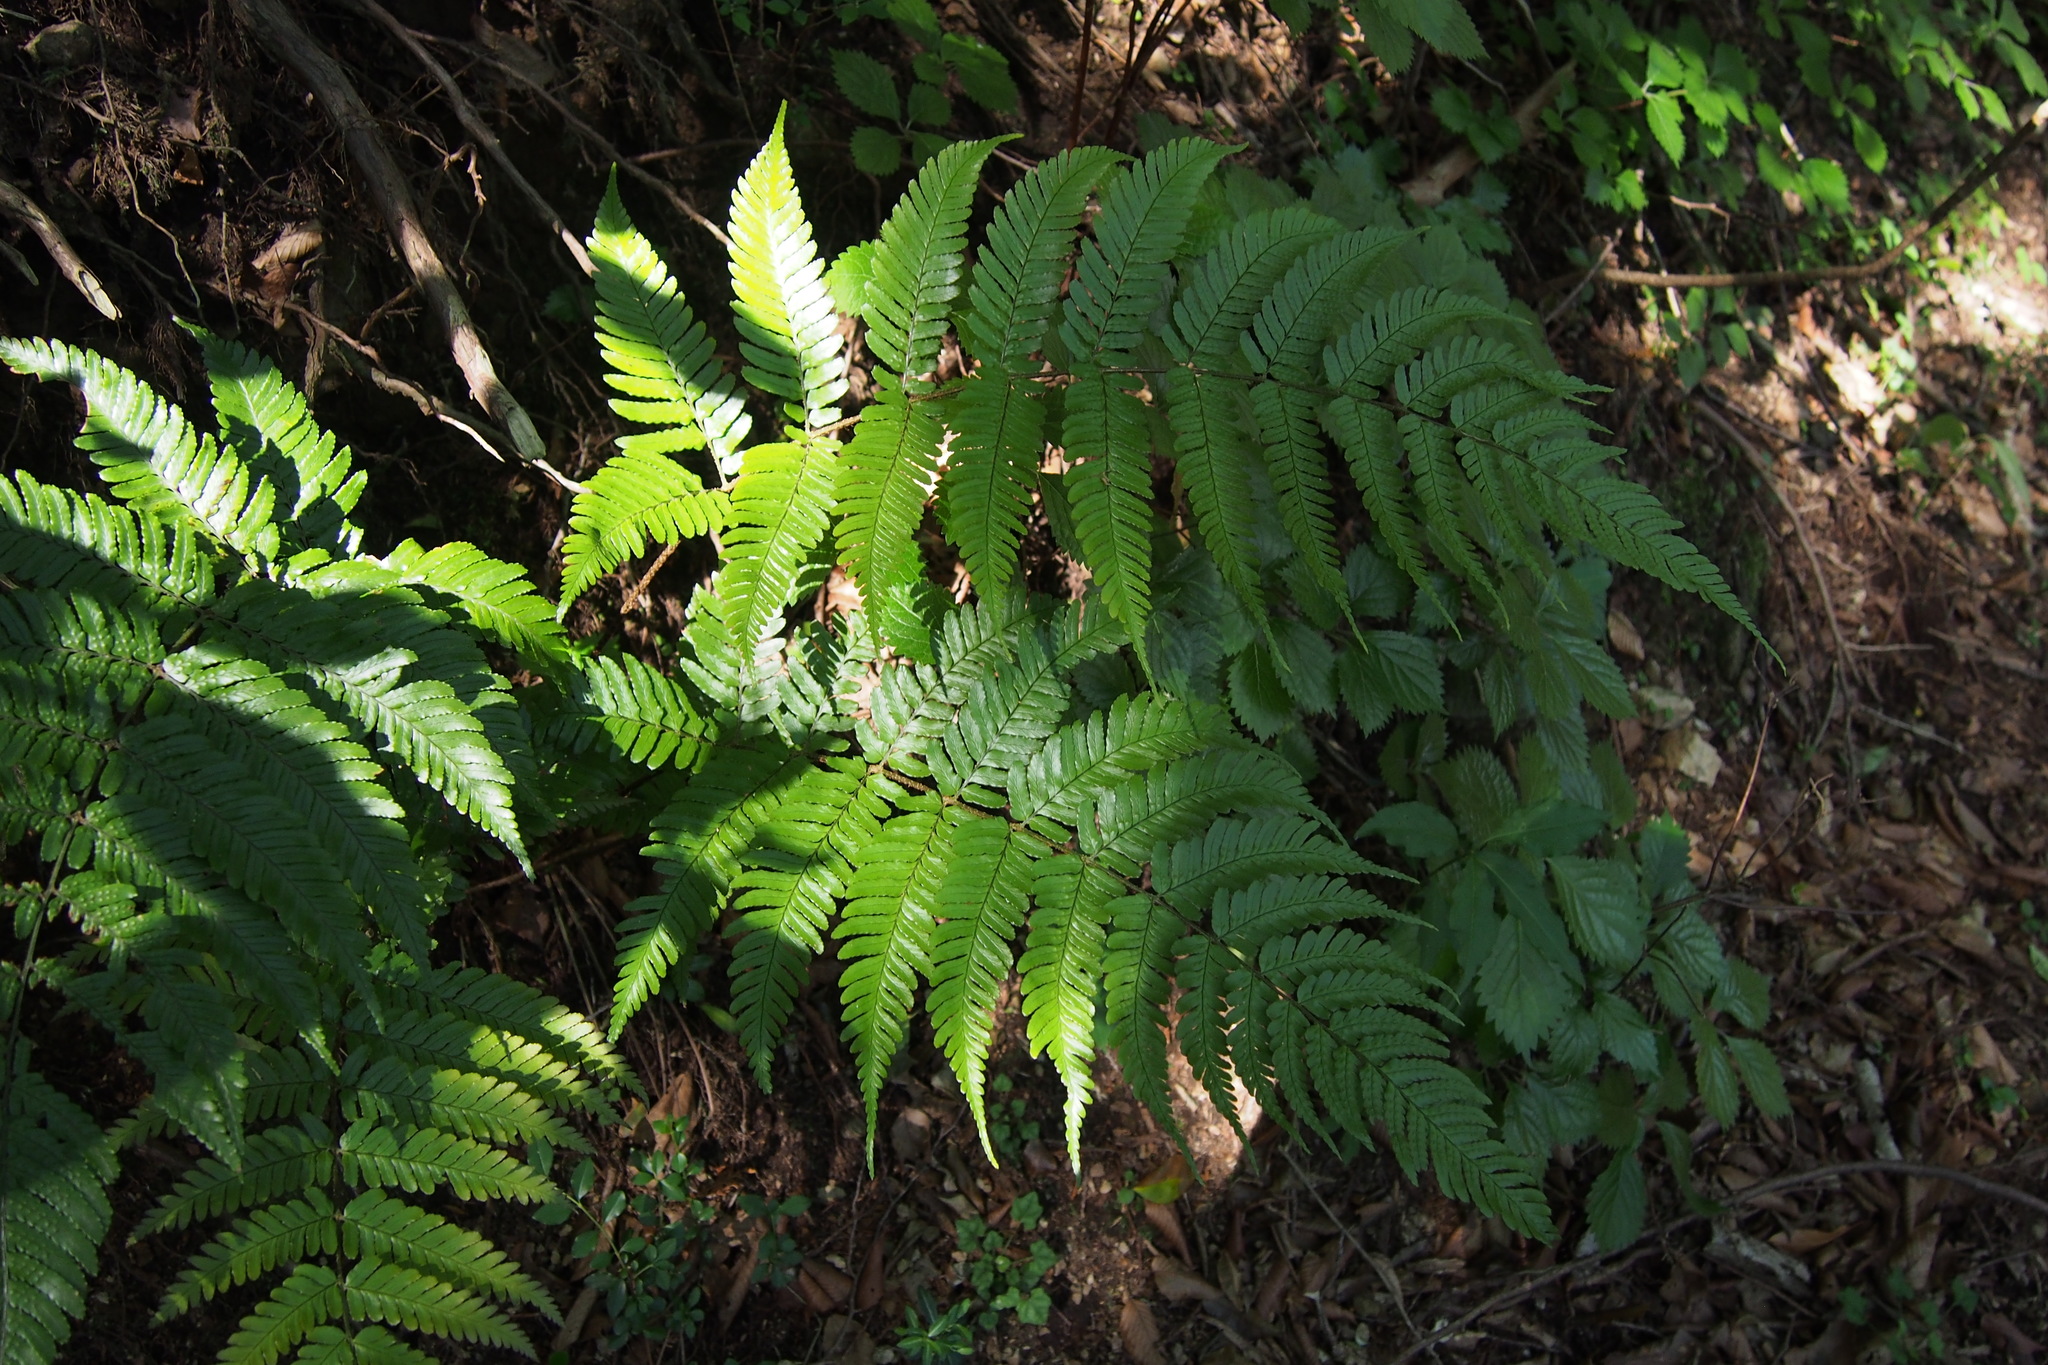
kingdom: Plantae
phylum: Tracheophyta
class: Polypodiopsida
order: Polypodiales
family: Dryopteridaceae
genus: Dryopteris
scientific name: Dryopteris erythrosora
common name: Autumn fern
